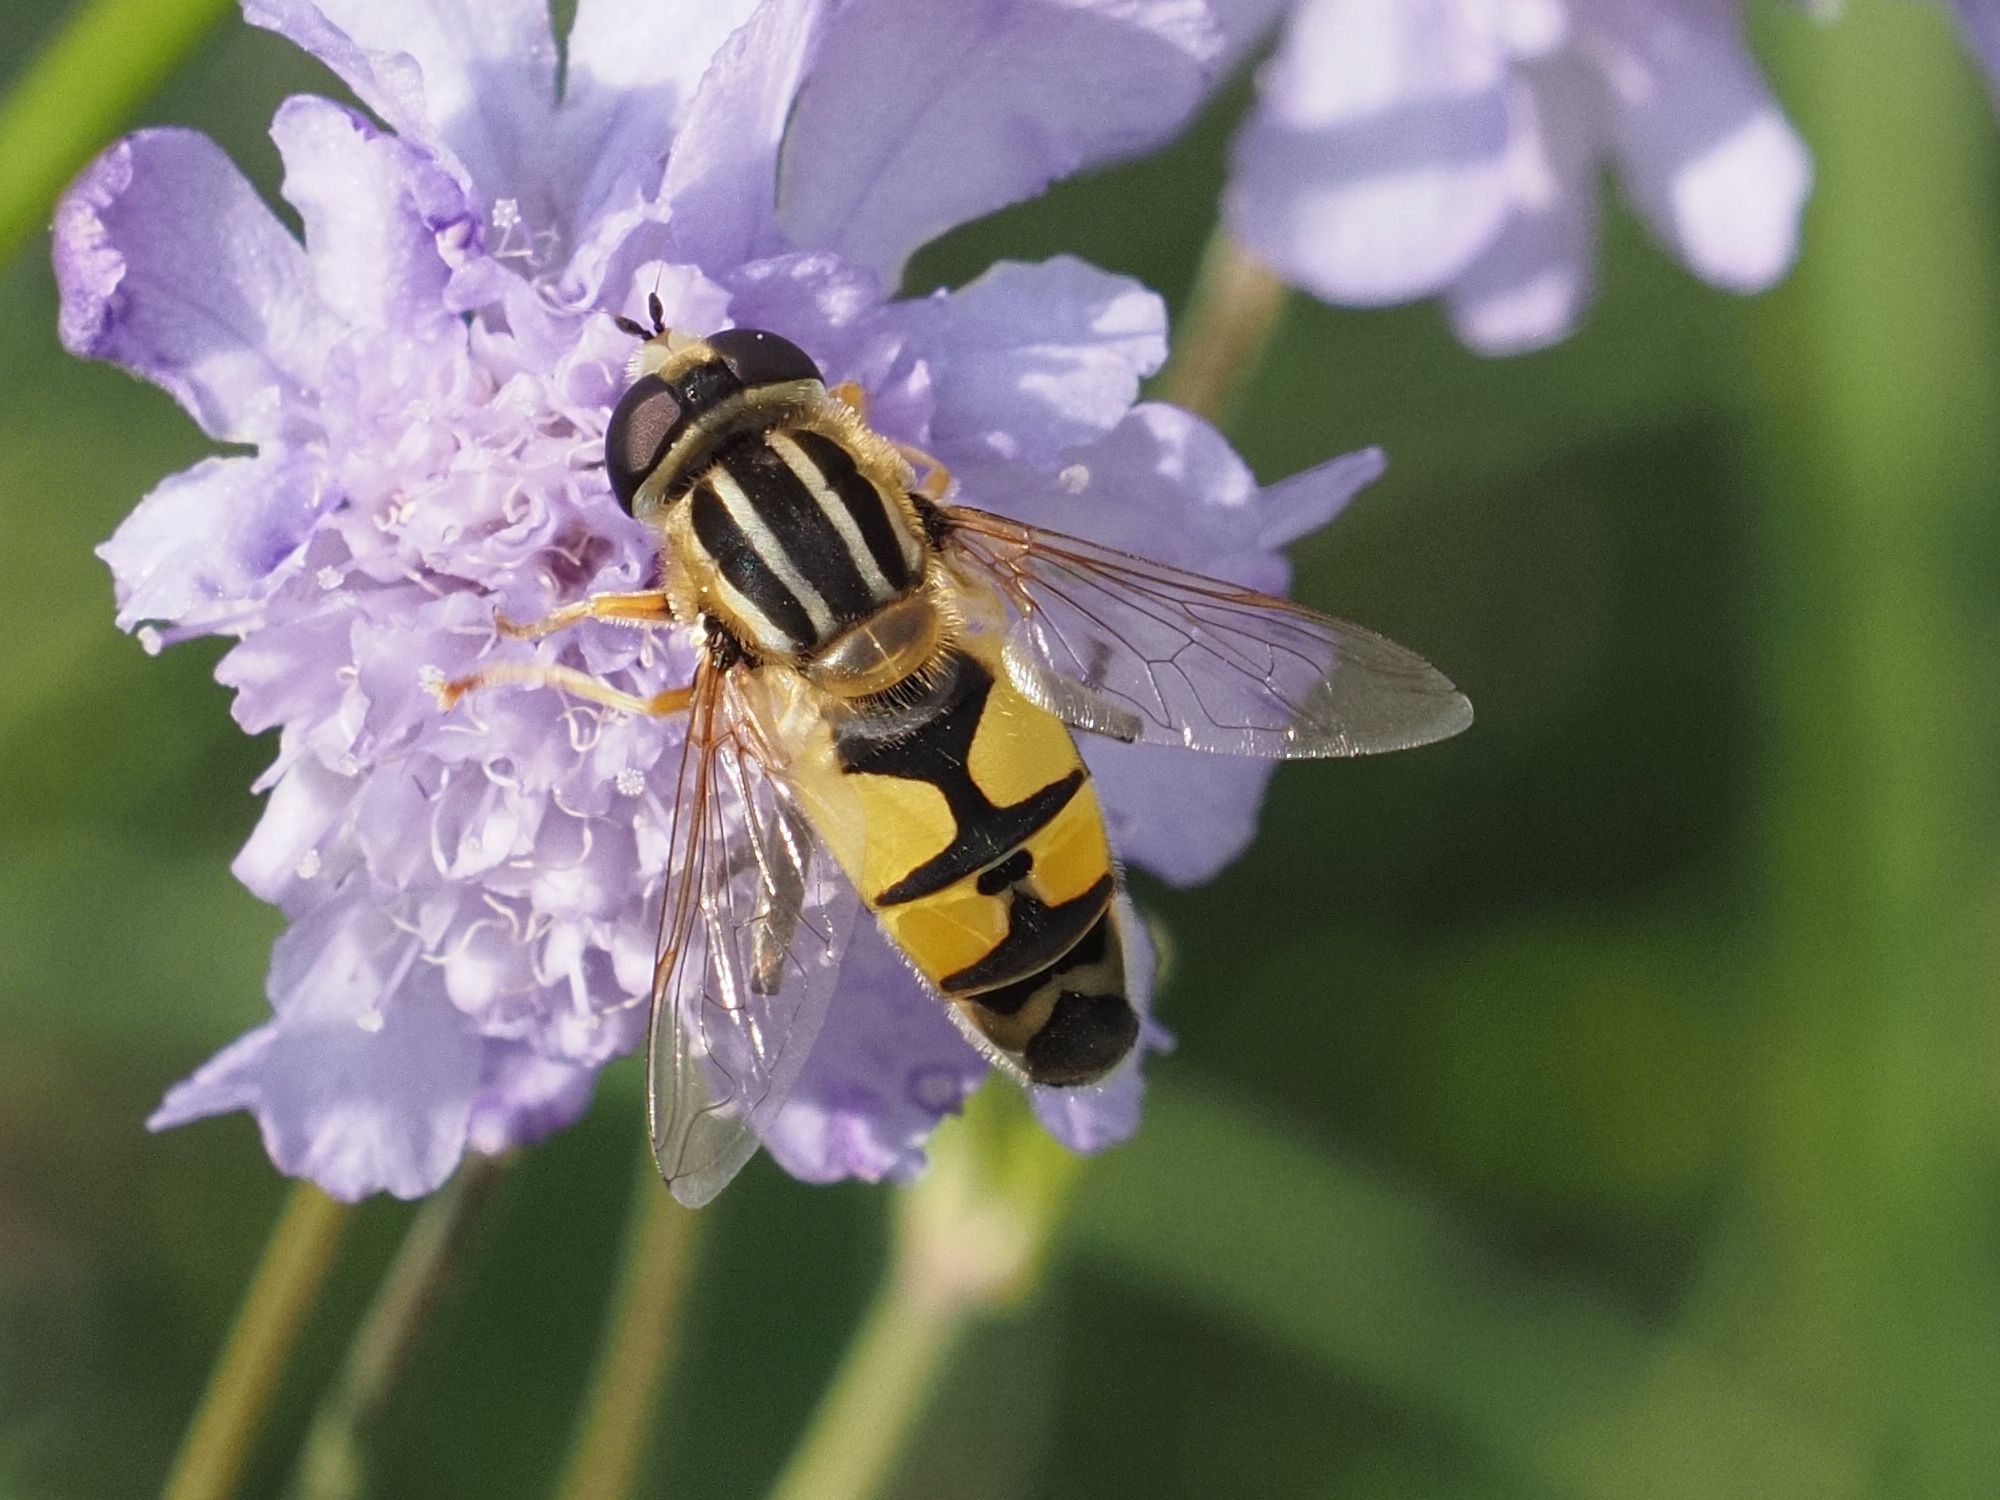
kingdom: Animalia
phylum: Arthropoda
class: Insecta
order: Diptera
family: Syrphidae
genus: Helophilus
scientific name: Helophilus trivittatus
